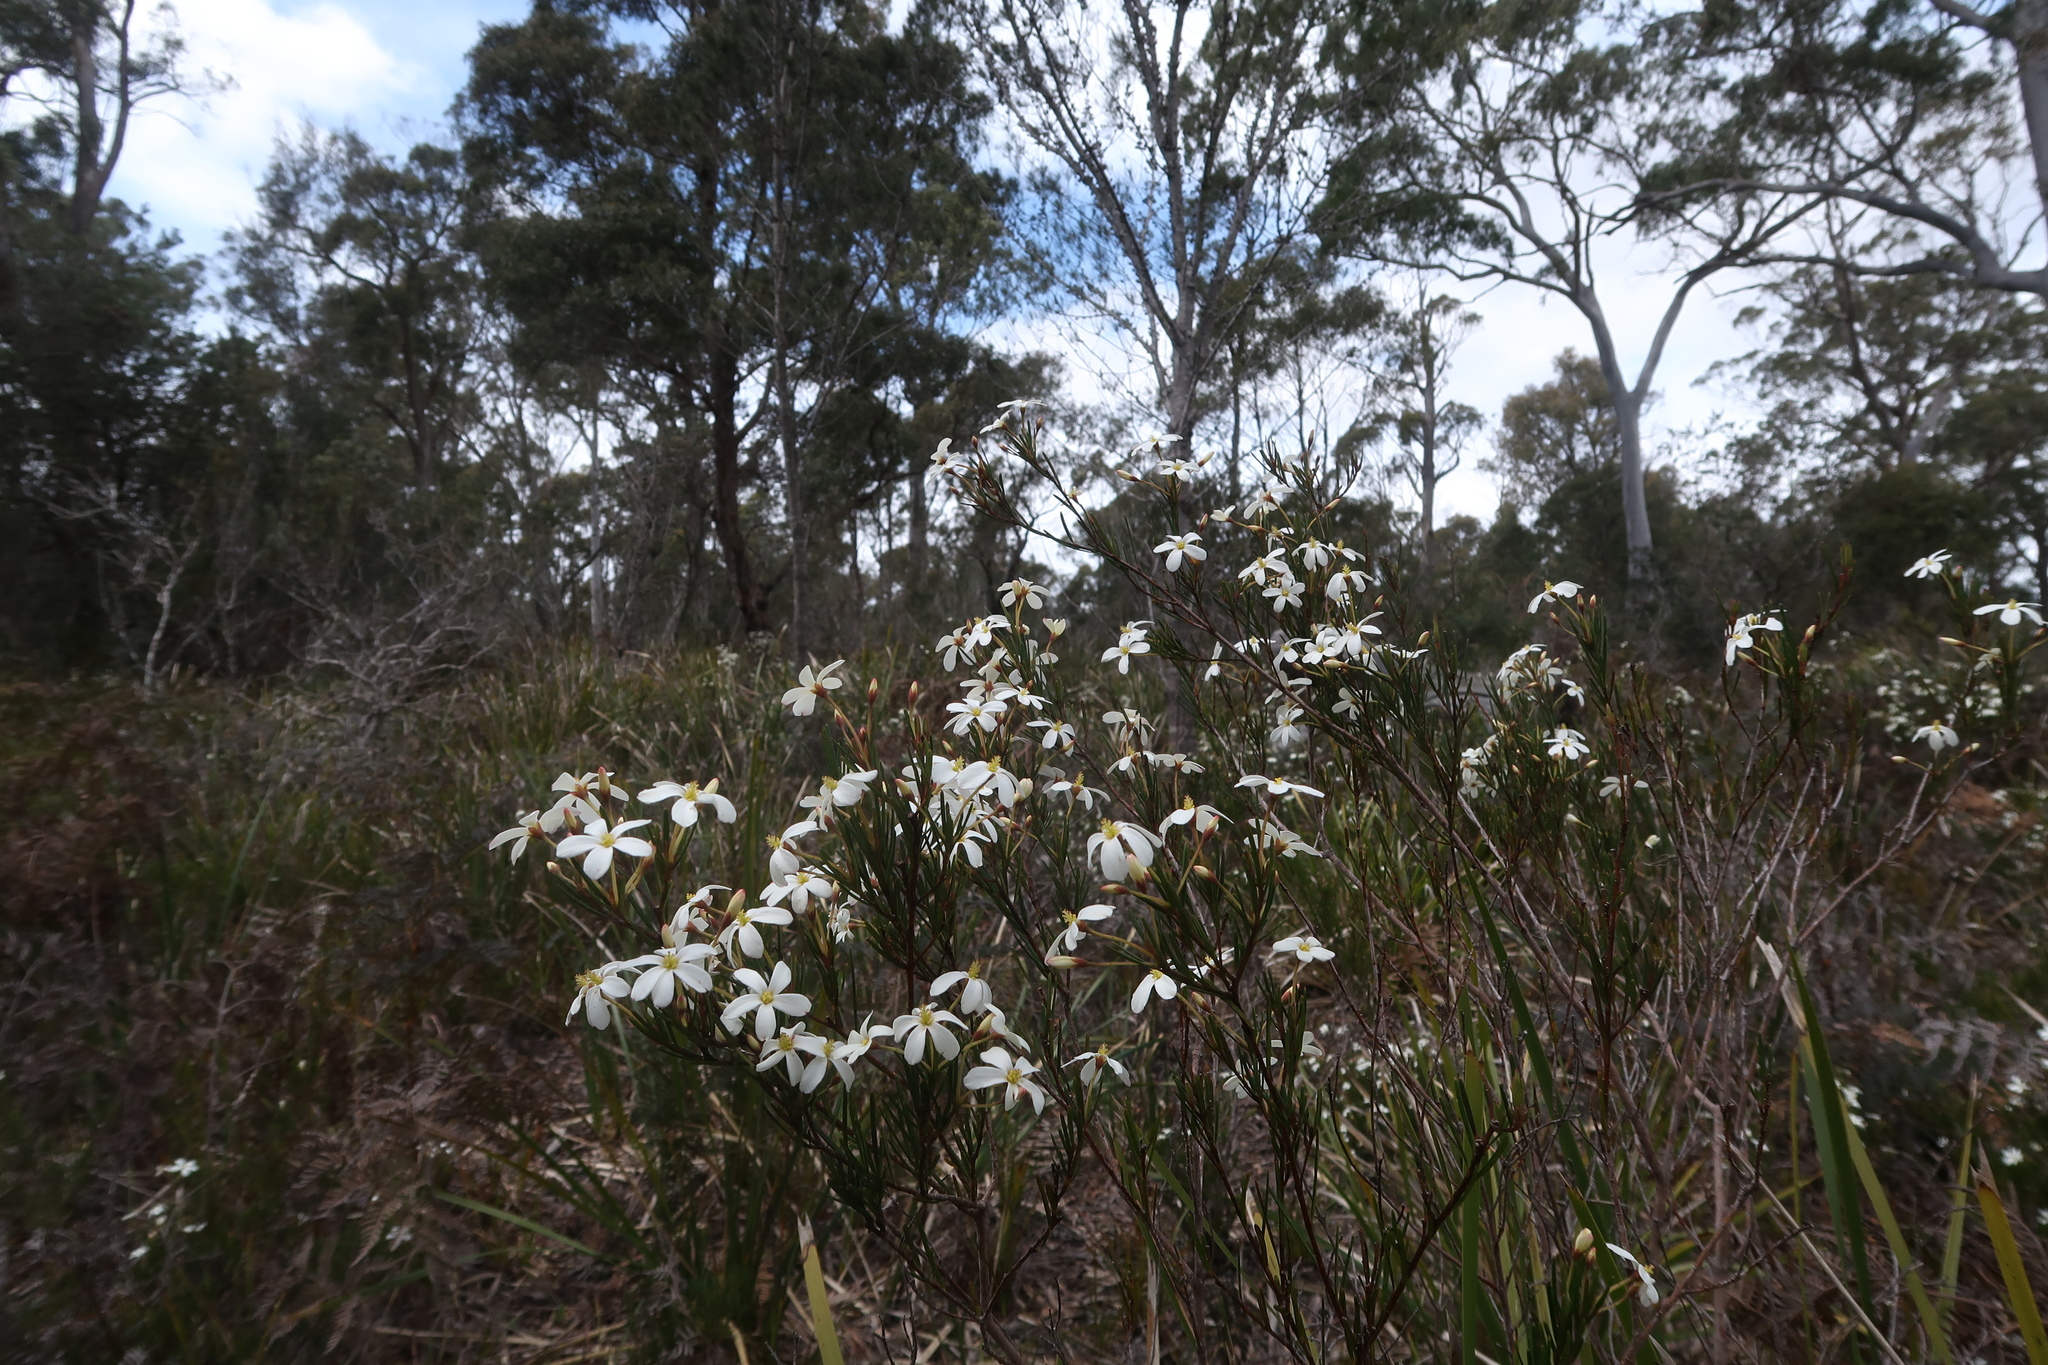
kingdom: Plantae
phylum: Tracheophyta
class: Magnoliopsida
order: Malpighiales
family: Euphorbiaceae
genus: Ricinocarpos
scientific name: Ricinocarpos pinifolius
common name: Weddingbush
